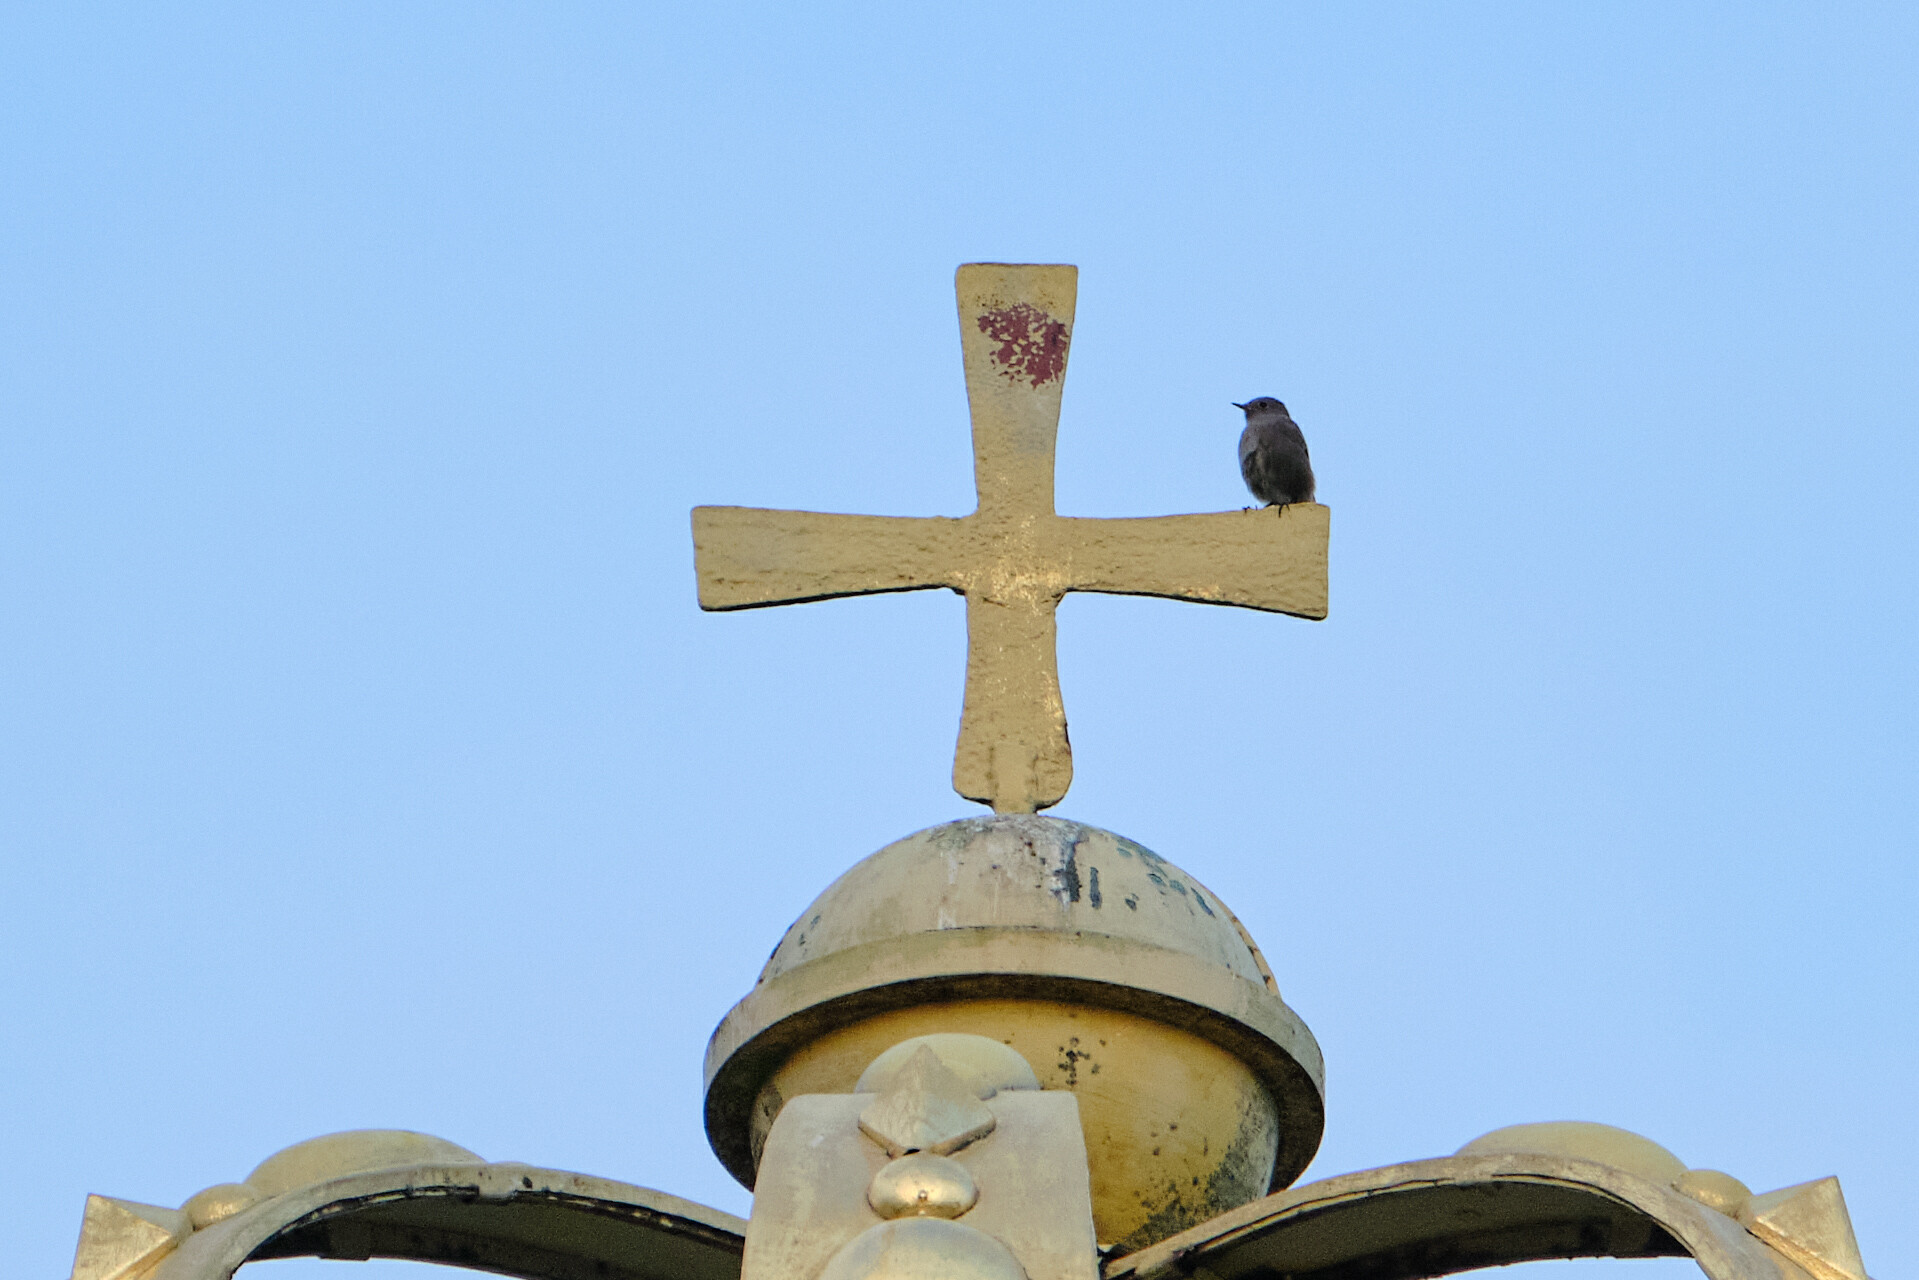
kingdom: Animalia
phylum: Chordata
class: Aves
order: Passeriformes
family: Muscicapidae
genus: Phoenicurus
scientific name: Phoenicurus ochruros
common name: Black redstart
